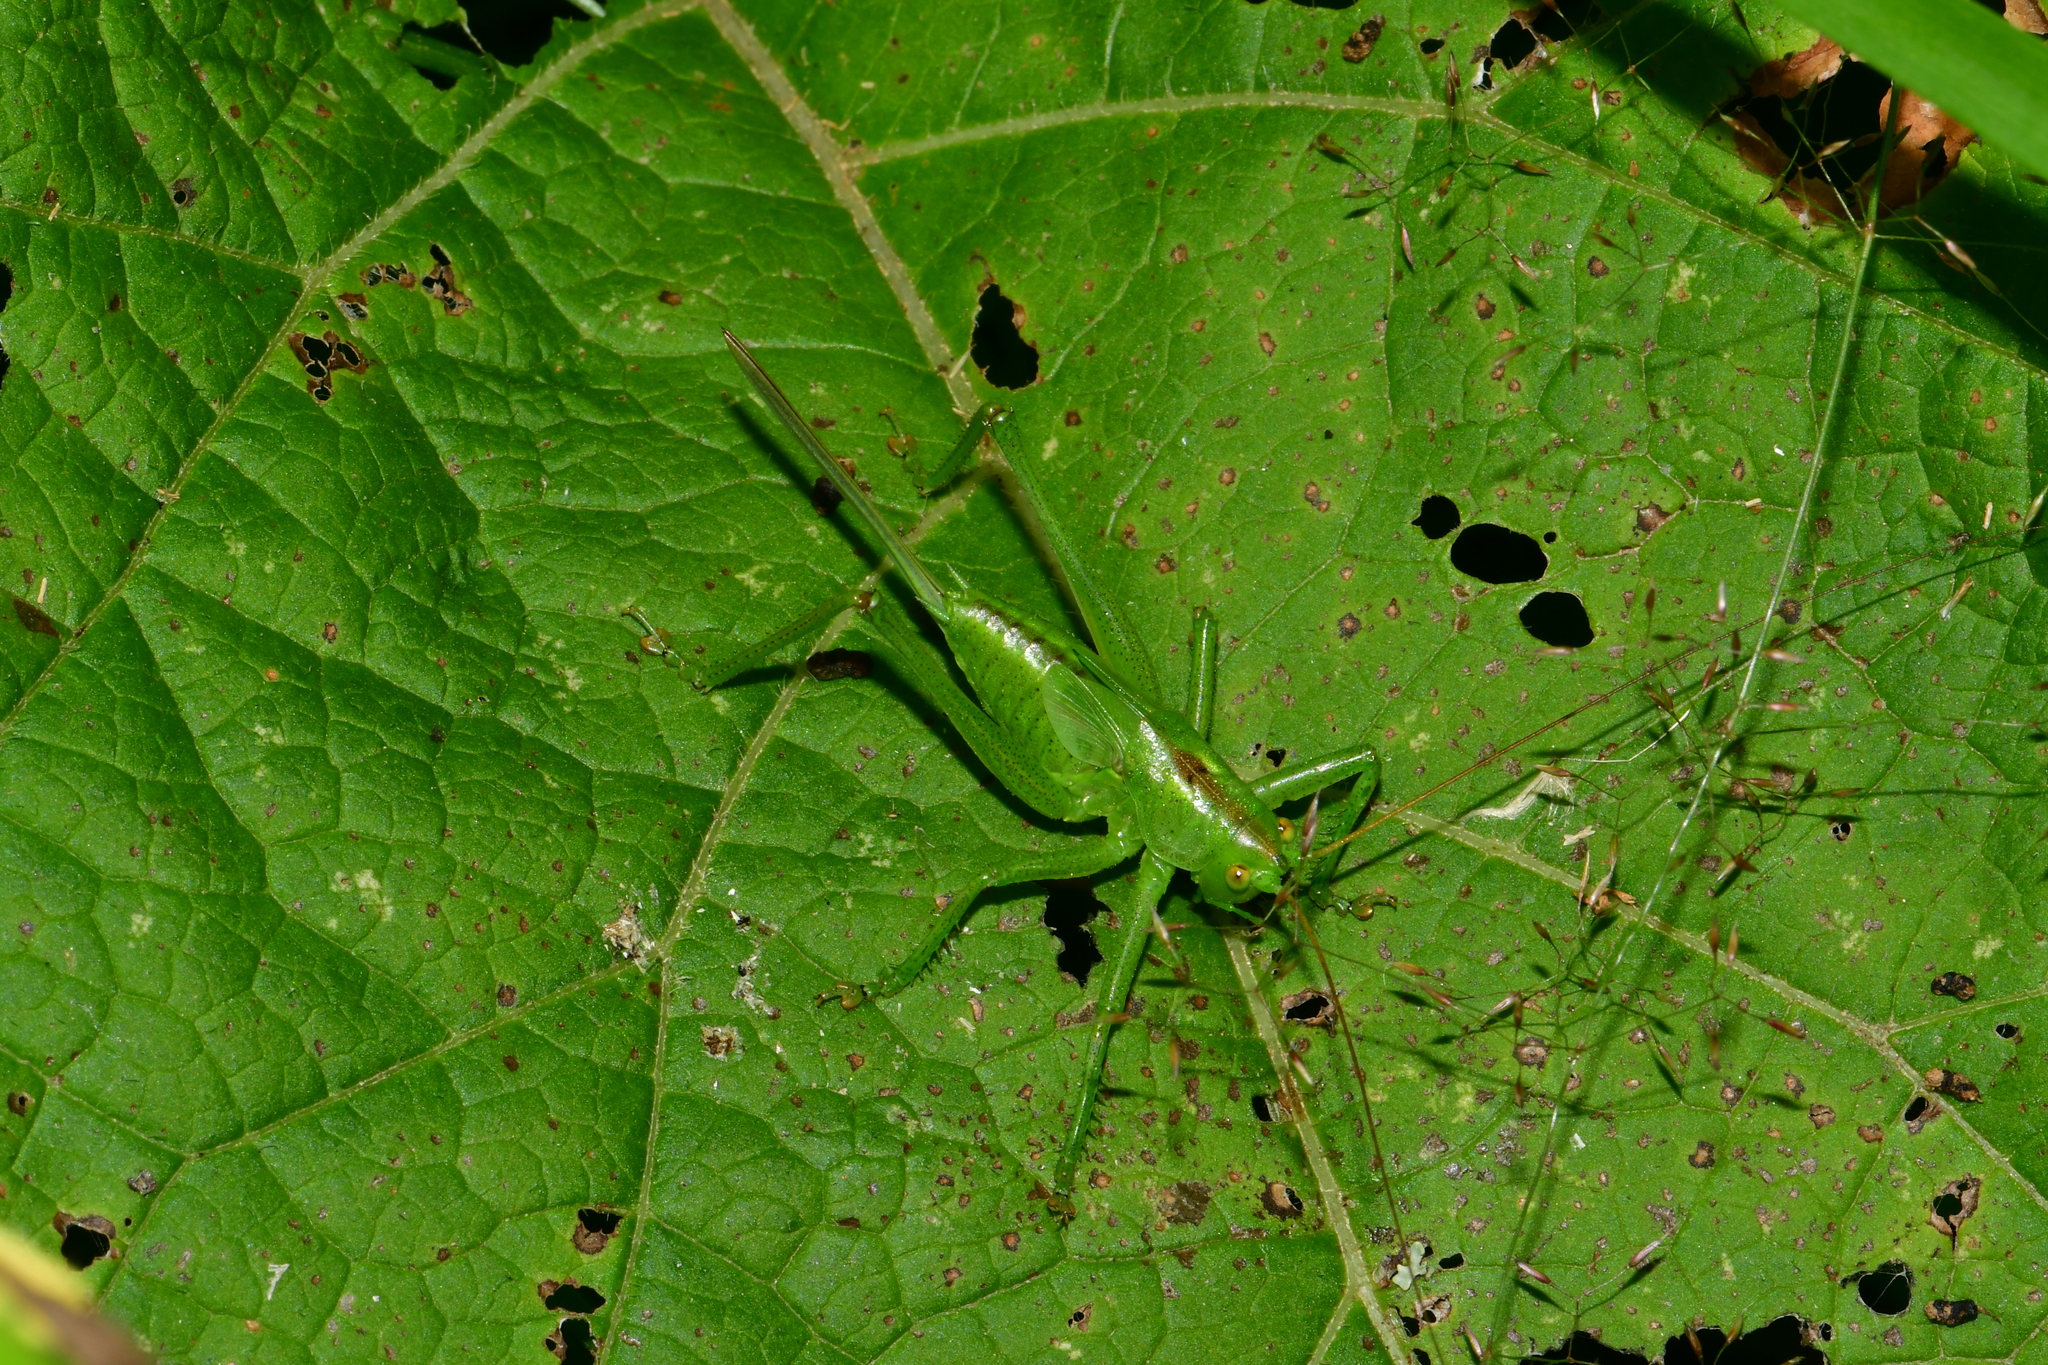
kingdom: Animalia
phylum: Arthropoda
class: Insecta
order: Orthoptera
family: Tettigoniidae
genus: Tettigonia
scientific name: Tettigonia cantans
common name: Upland green bush-cricket
